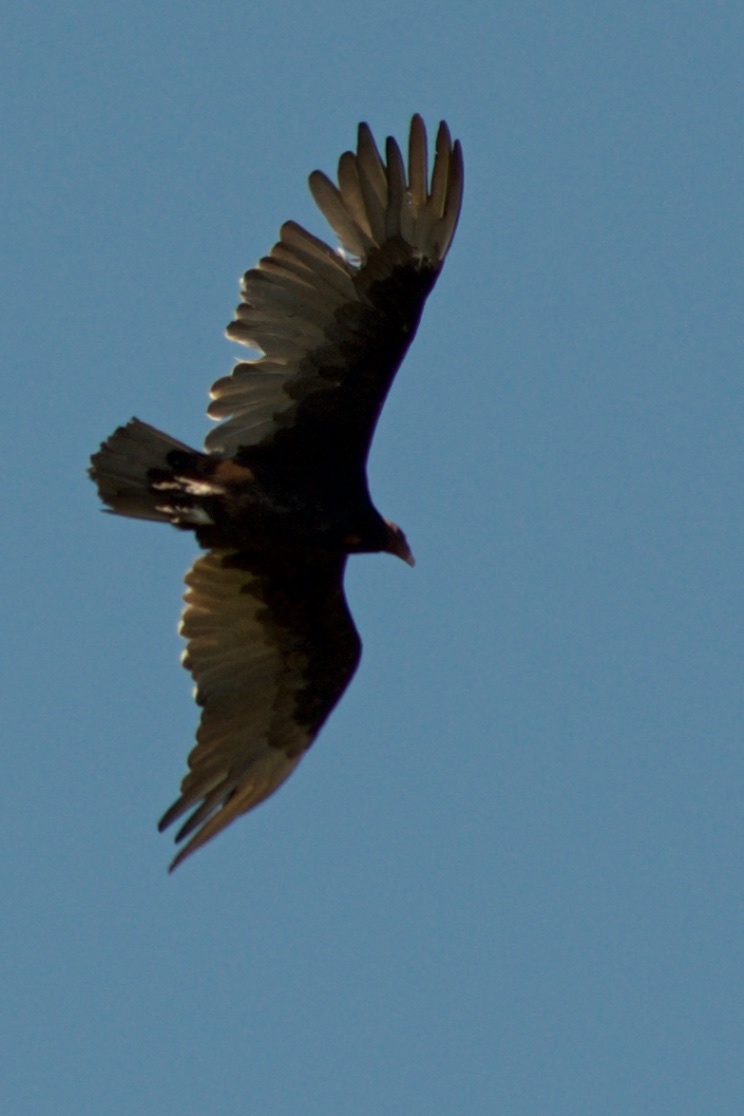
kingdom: Animalia
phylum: Chordata
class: Aves
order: Accipitriformes
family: Cathartidae
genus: Cathartes
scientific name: Cathartes aura
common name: Turkey vulture
